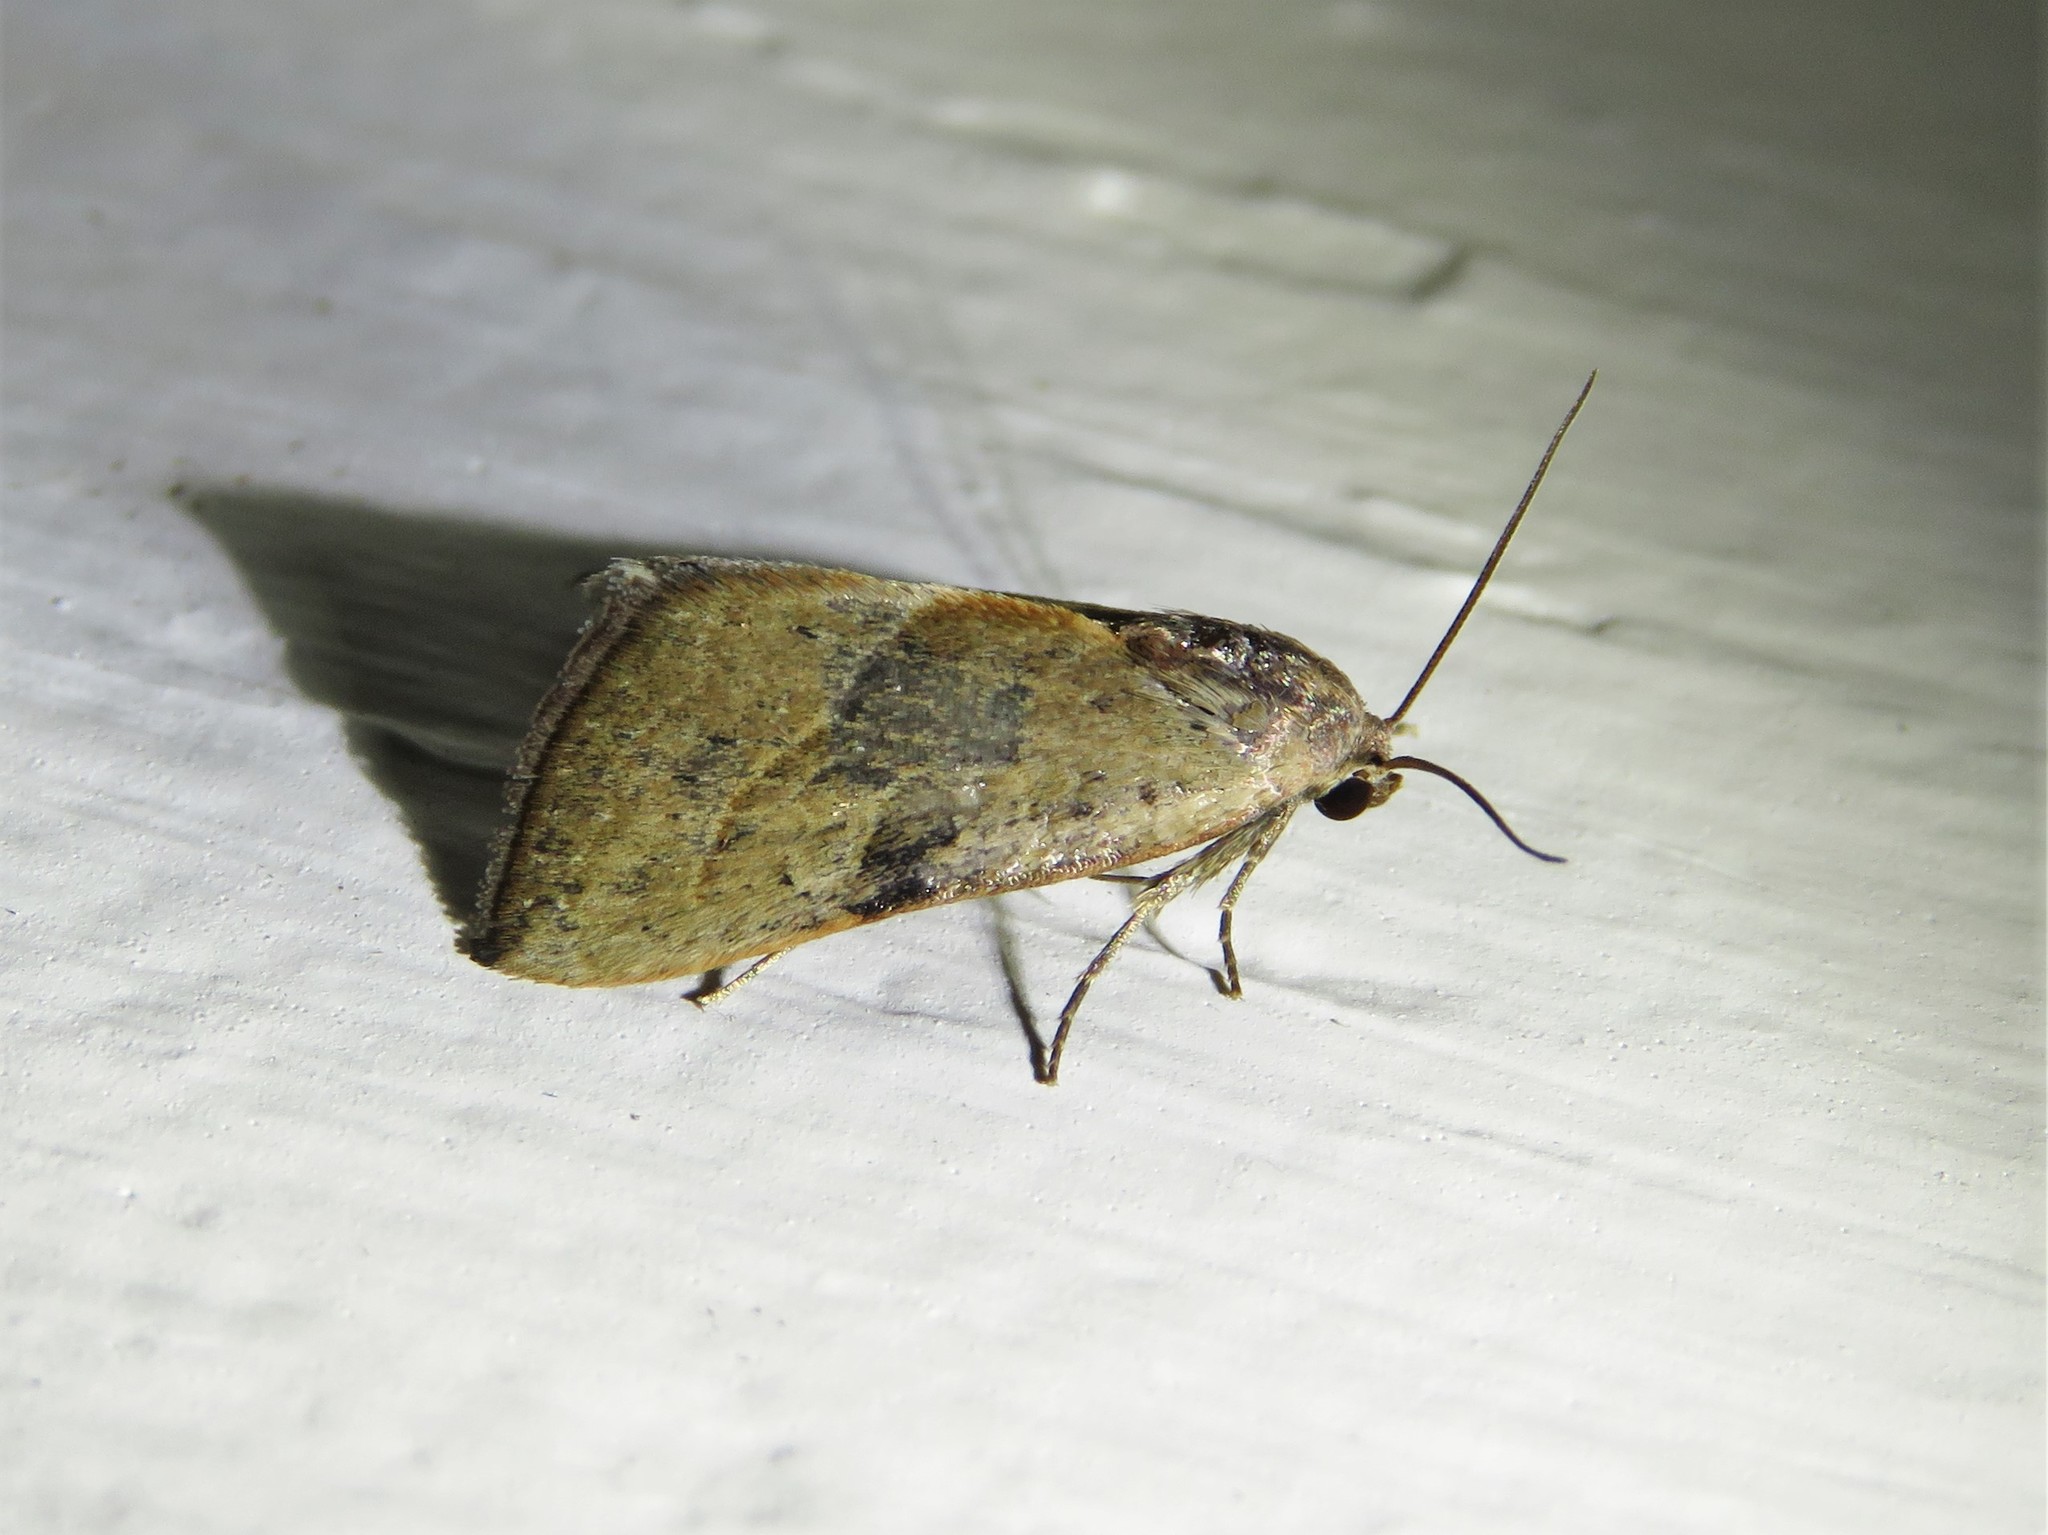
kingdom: Animalia
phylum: Arthropoda
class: Insecta
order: Lepidoptera
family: Noctuidae
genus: Galgula
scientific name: Galgula partita
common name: Wedgeling
